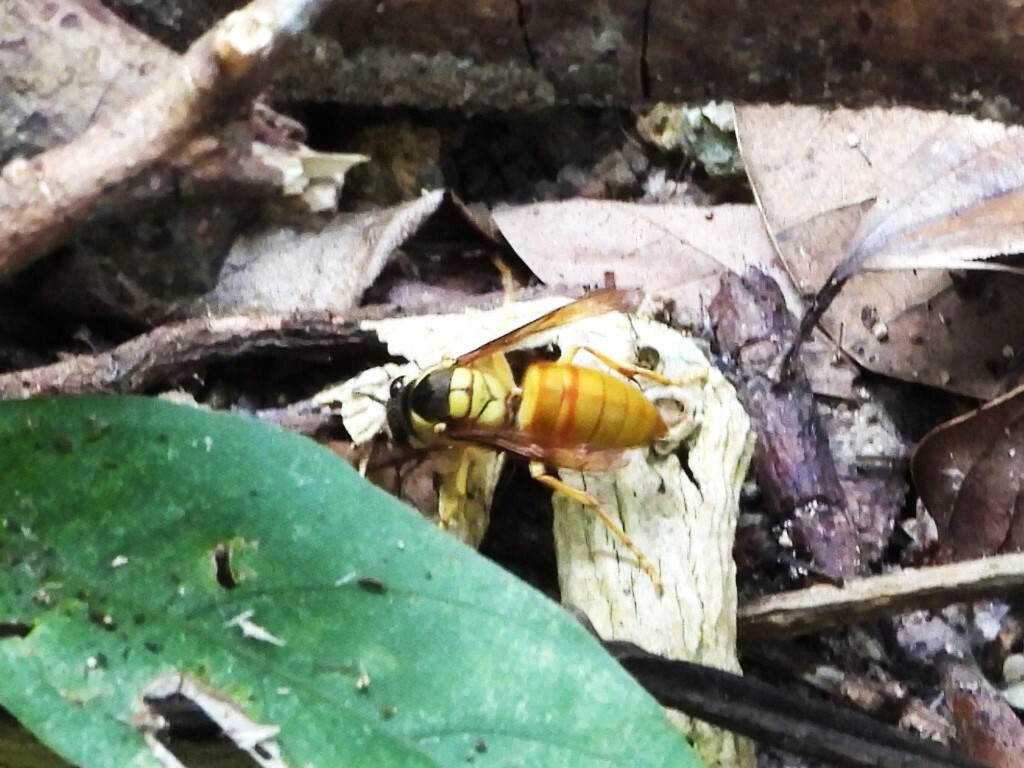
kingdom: Animalia
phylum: Arthropoda
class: Insecta
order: Hymenoptera
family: Vespidae
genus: Vespa
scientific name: Vespa bicolor
